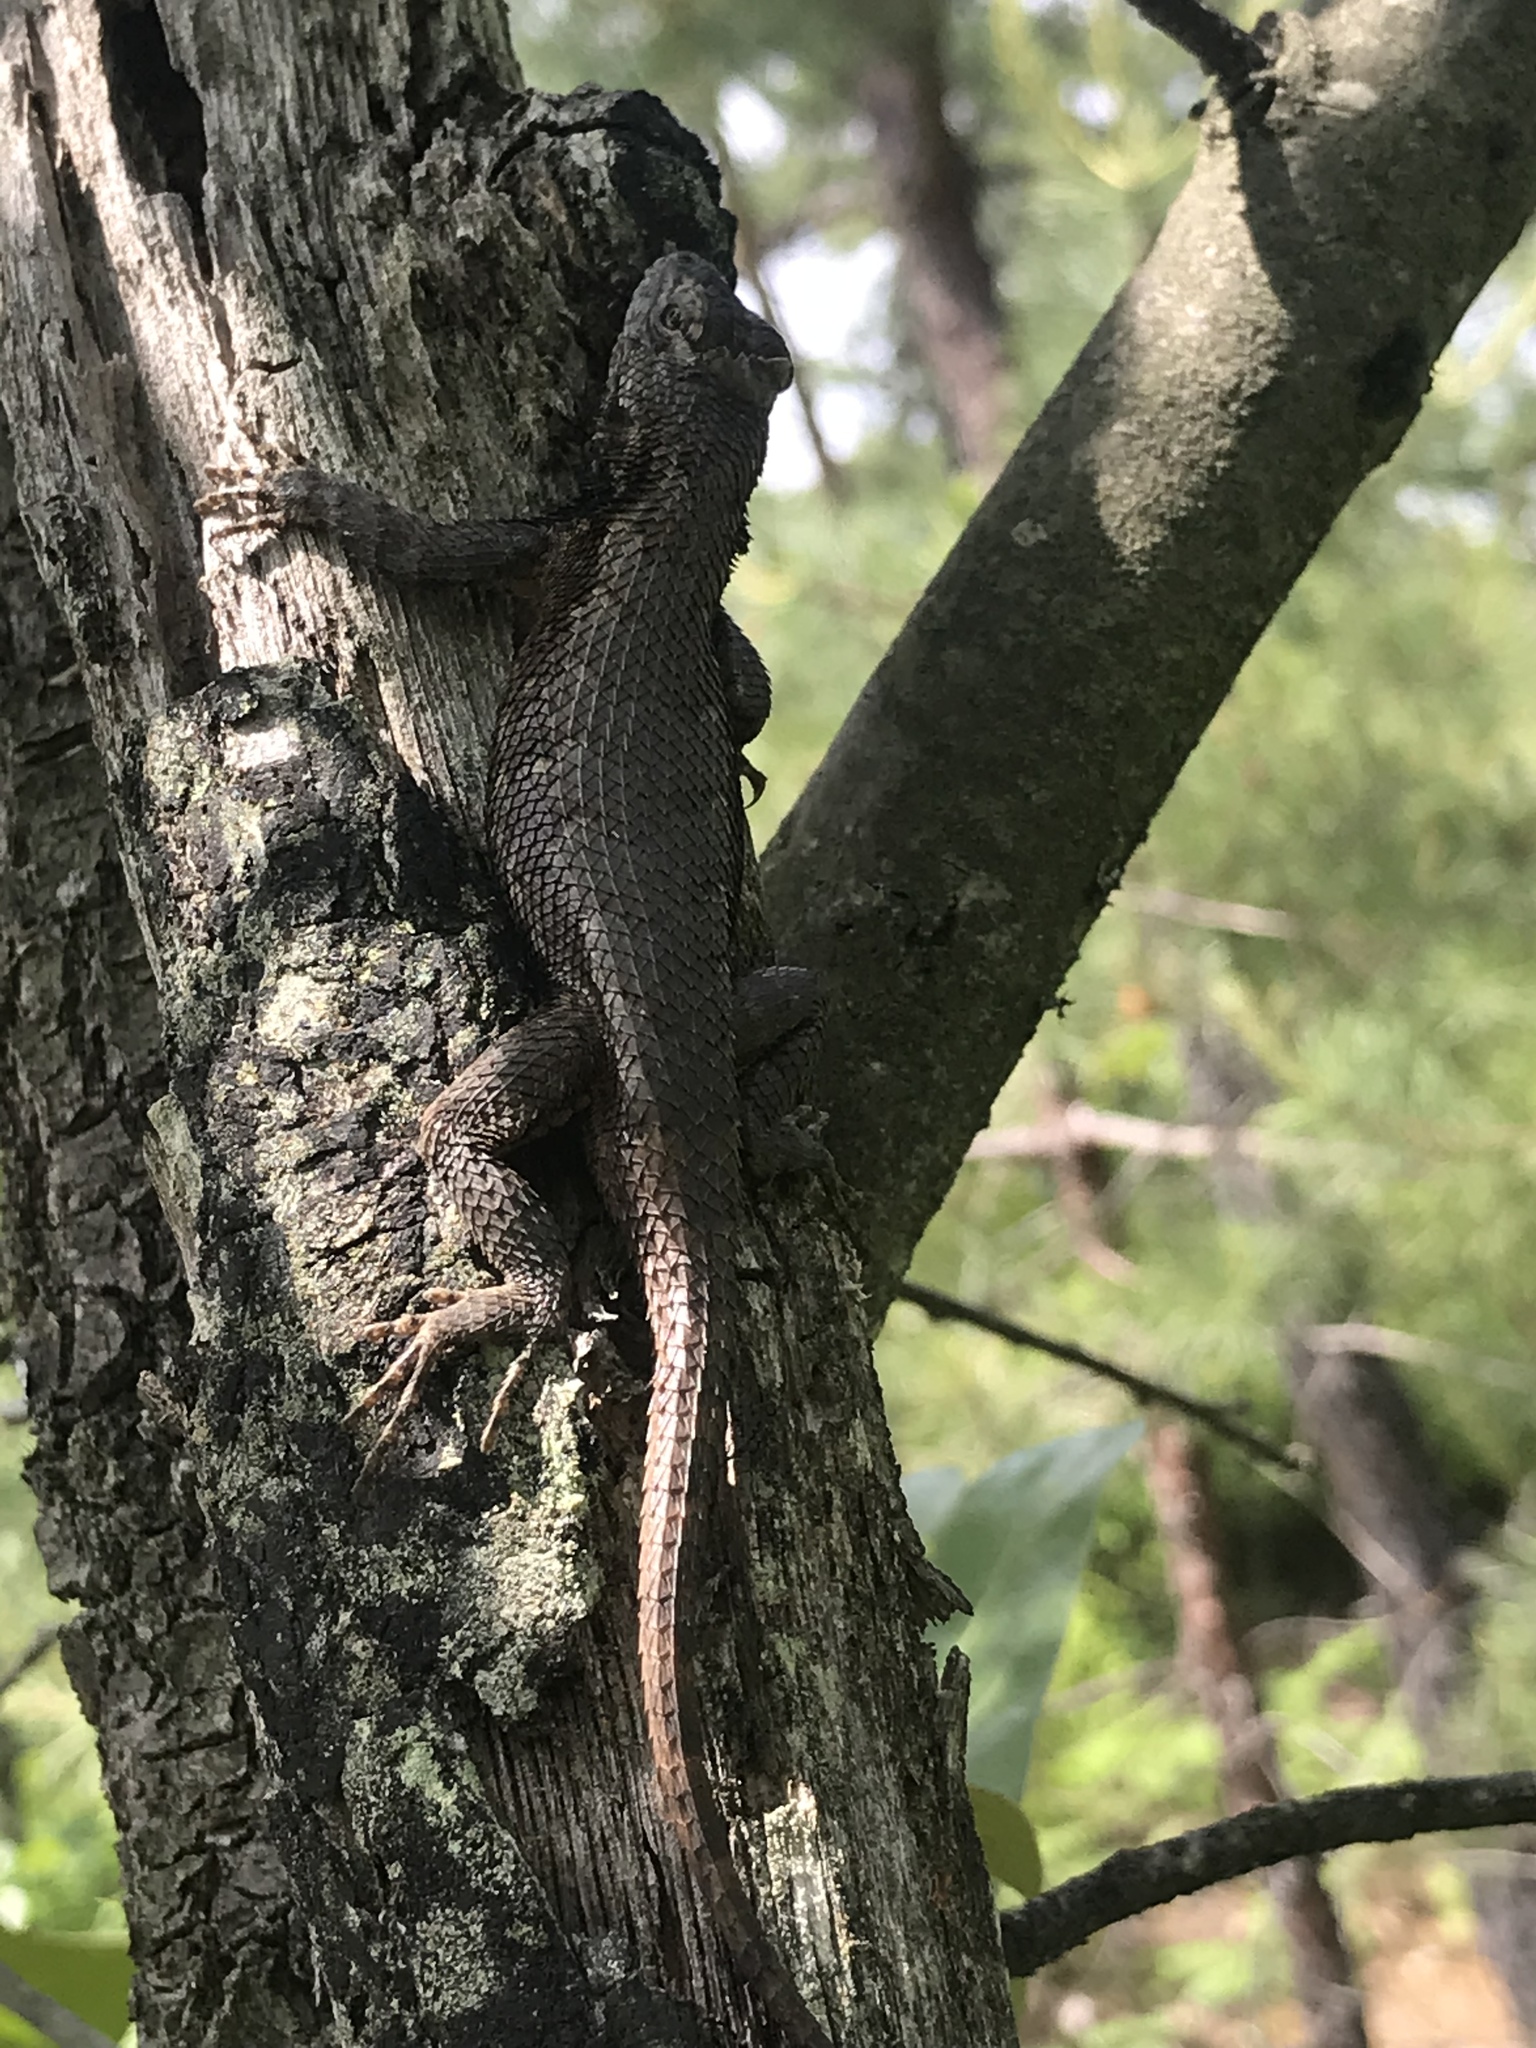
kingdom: Animalia
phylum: Chordata
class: Squamata
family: Phrynosomatidae
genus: Sceloporus
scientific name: Sceloporus undulatus
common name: Eastern fence lizard
